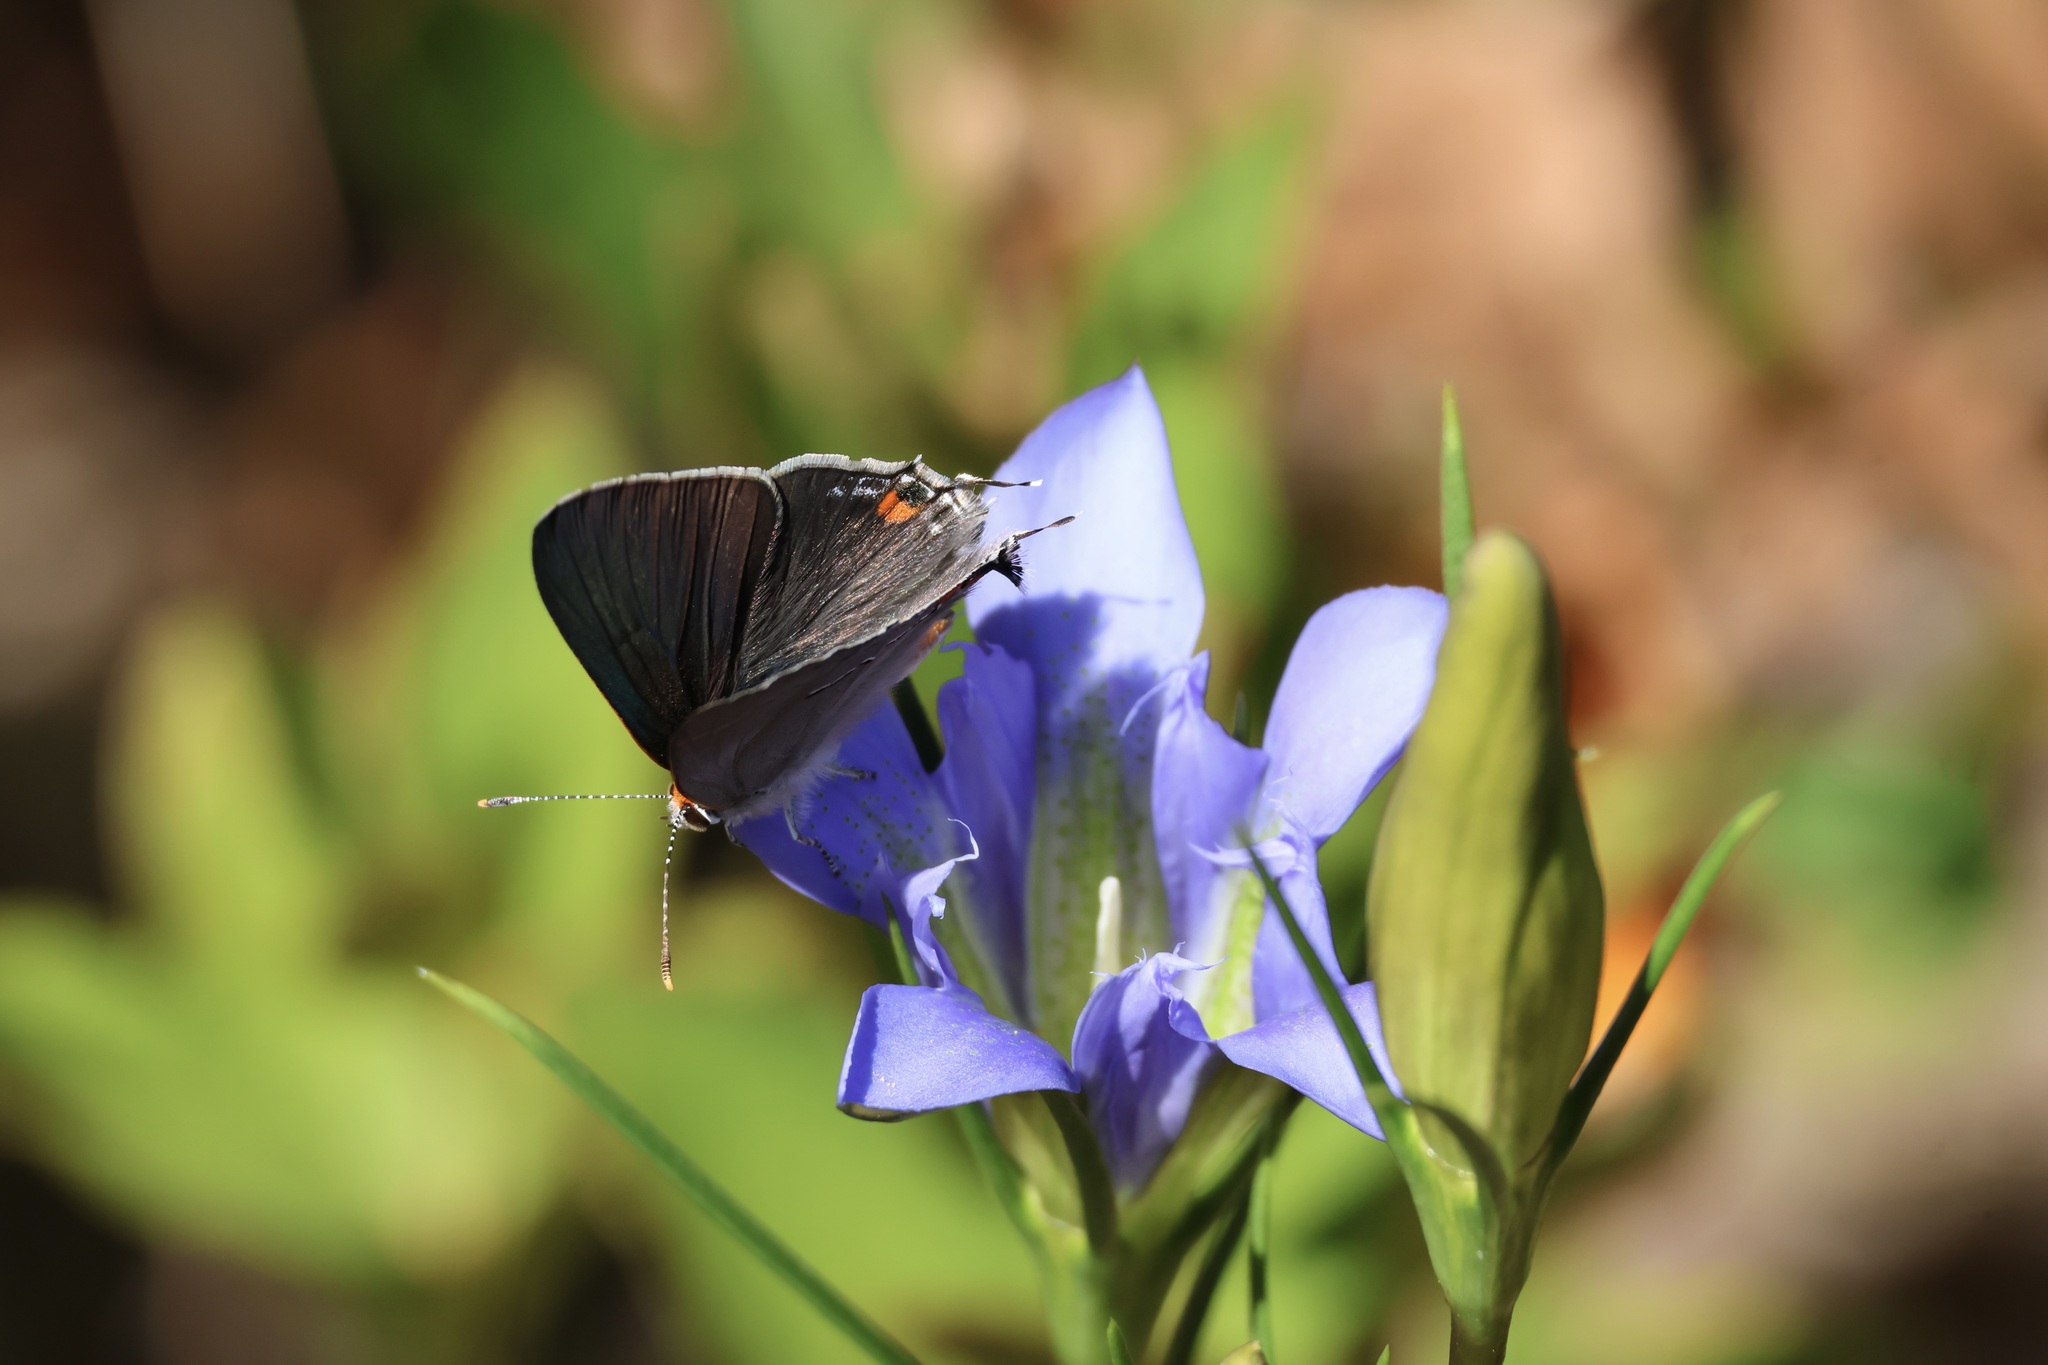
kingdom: Animalia
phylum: Arthropoda
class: Insecta
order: Lepidoptera
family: Lycaenidae
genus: Strymon
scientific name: Strymon melinus
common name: Gray hairstreak
